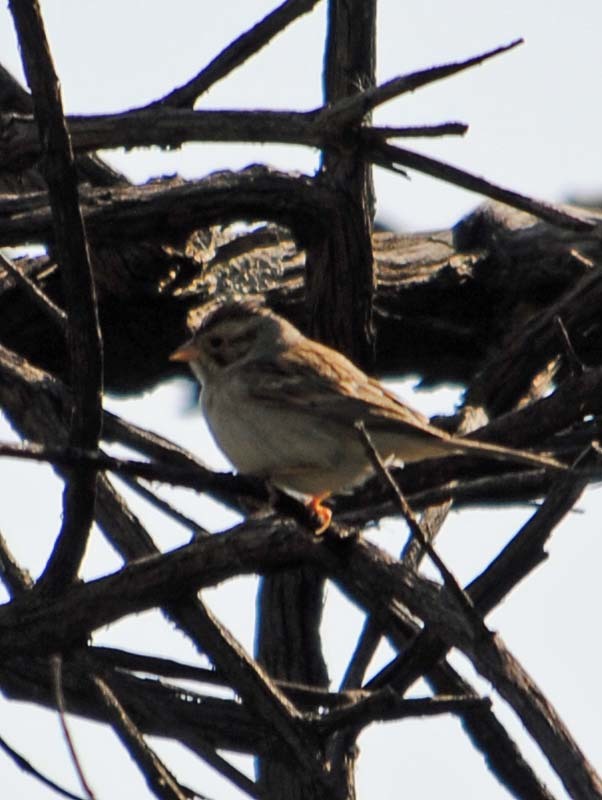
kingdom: Animalia
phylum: Chordata
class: Aves
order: Passeriformes
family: Passerellidae
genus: Spizella
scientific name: Spizella pallida
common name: Clay-colored sparrow
